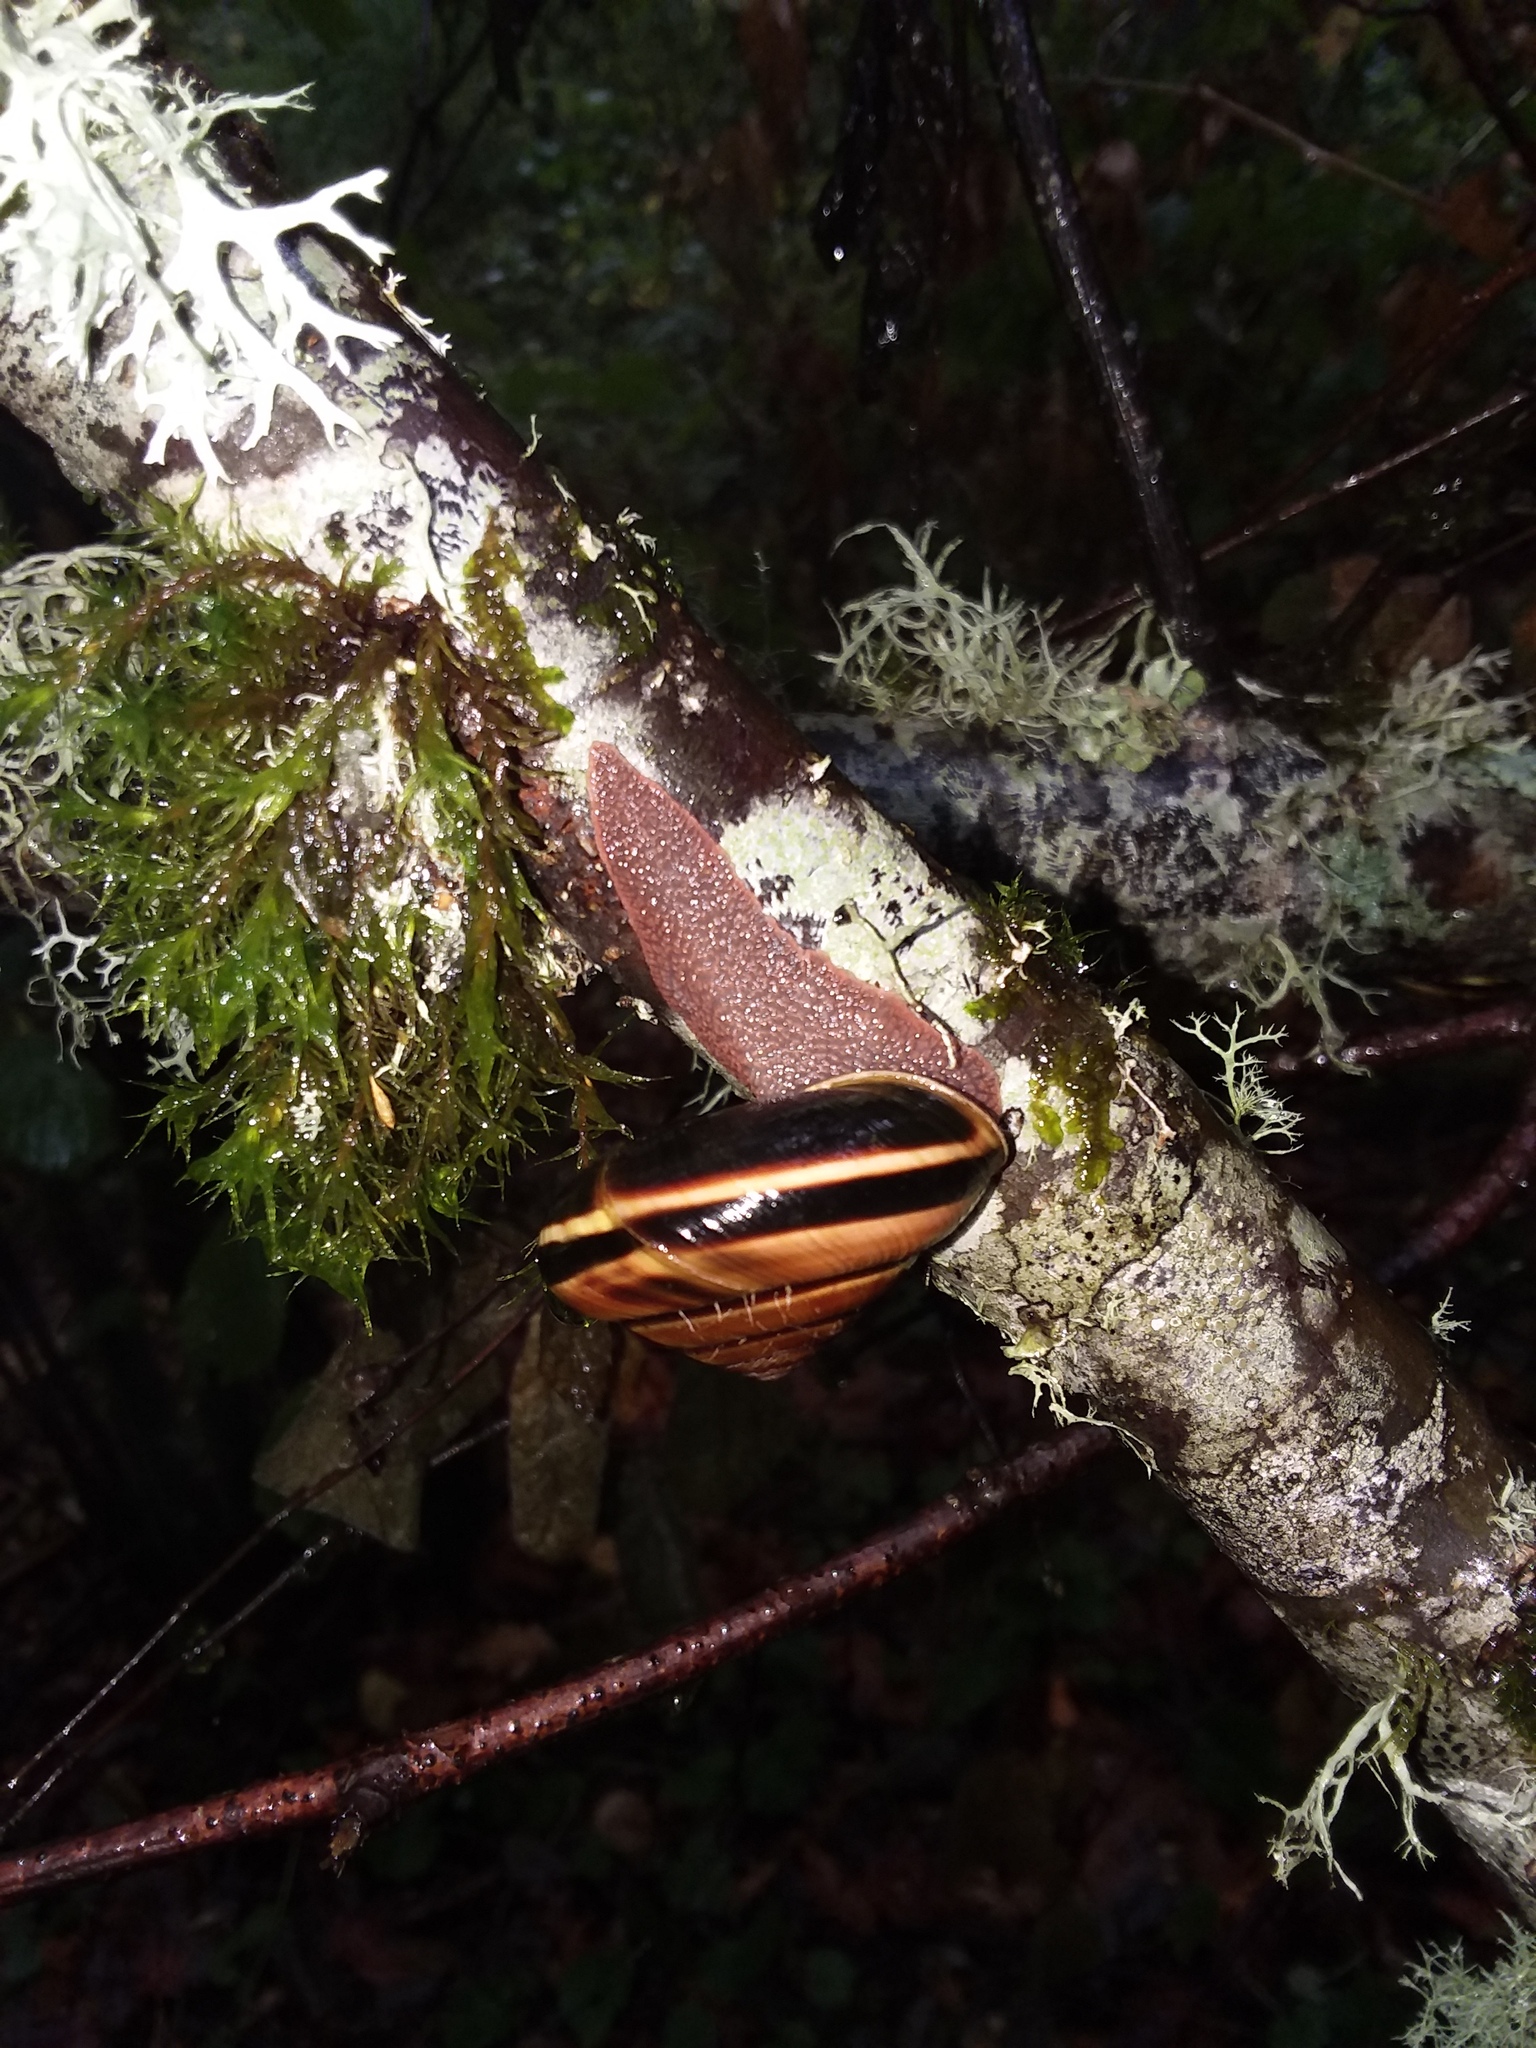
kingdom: Animalia
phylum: Mollusca
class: Gastropoda
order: Stylommatophora
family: Xanthonychidae
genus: Monadenia
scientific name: Monadenia fidelis
